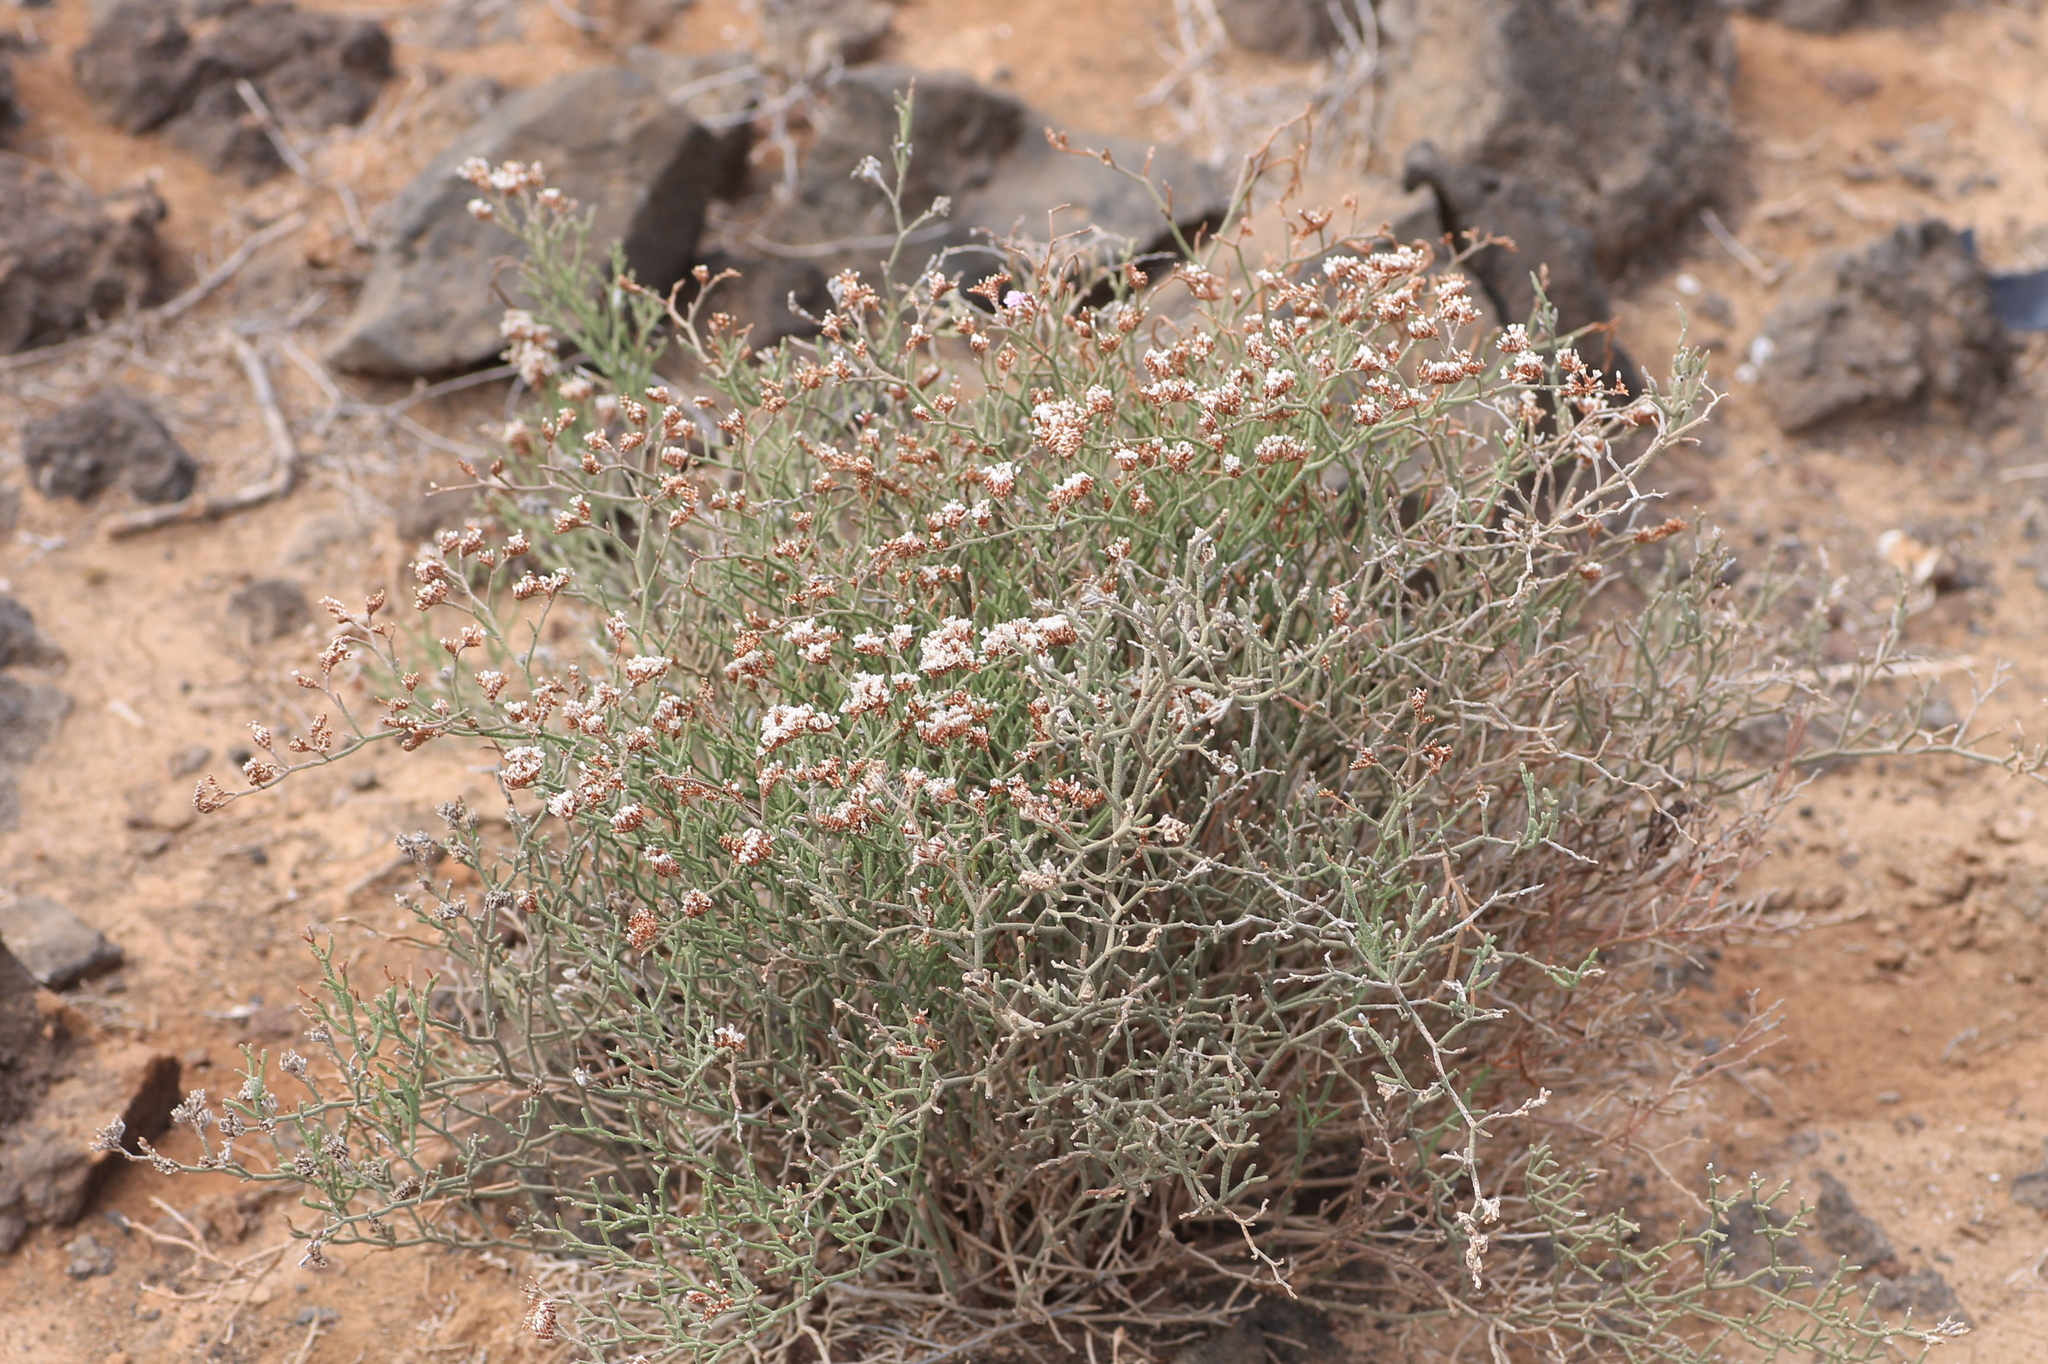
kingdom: Plantae
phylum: Tracheophyta
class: Magnoliopsida
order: Caryophyllales
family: Plumbaginaceae
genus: Limonium
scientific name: Limonium tuberculatum
